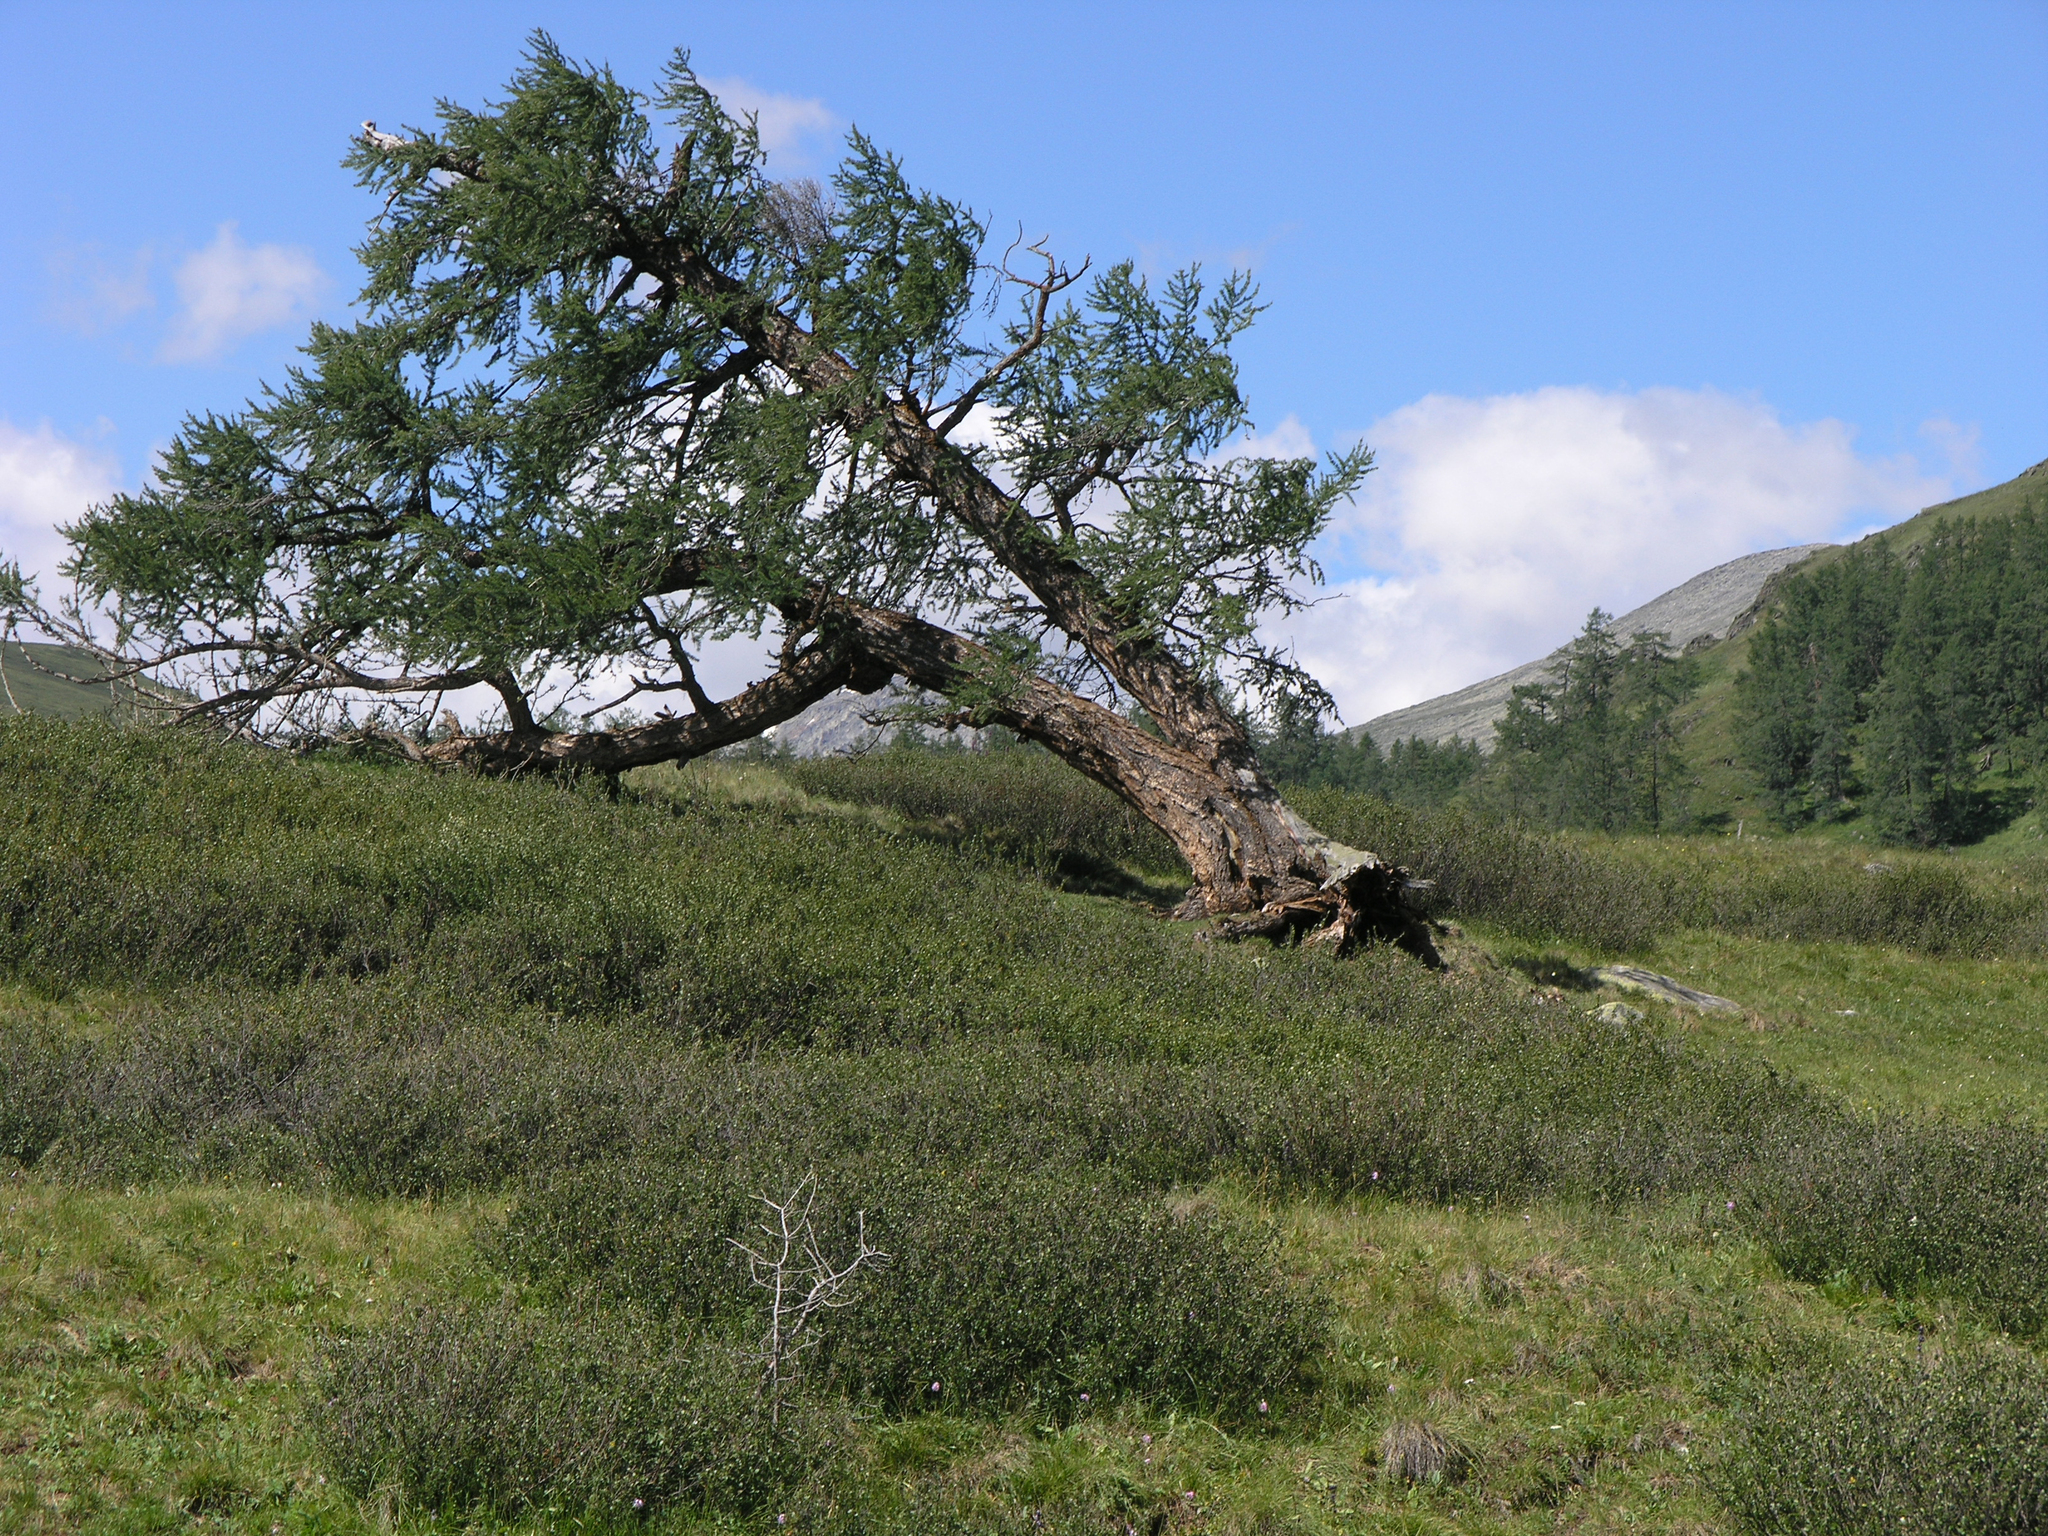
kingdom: Plantae
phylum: Tracheophyta
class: Pinopsida
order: Pinales
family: Pinaceae
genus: Larix
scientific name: Larix sibirica
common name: Siberian larch
